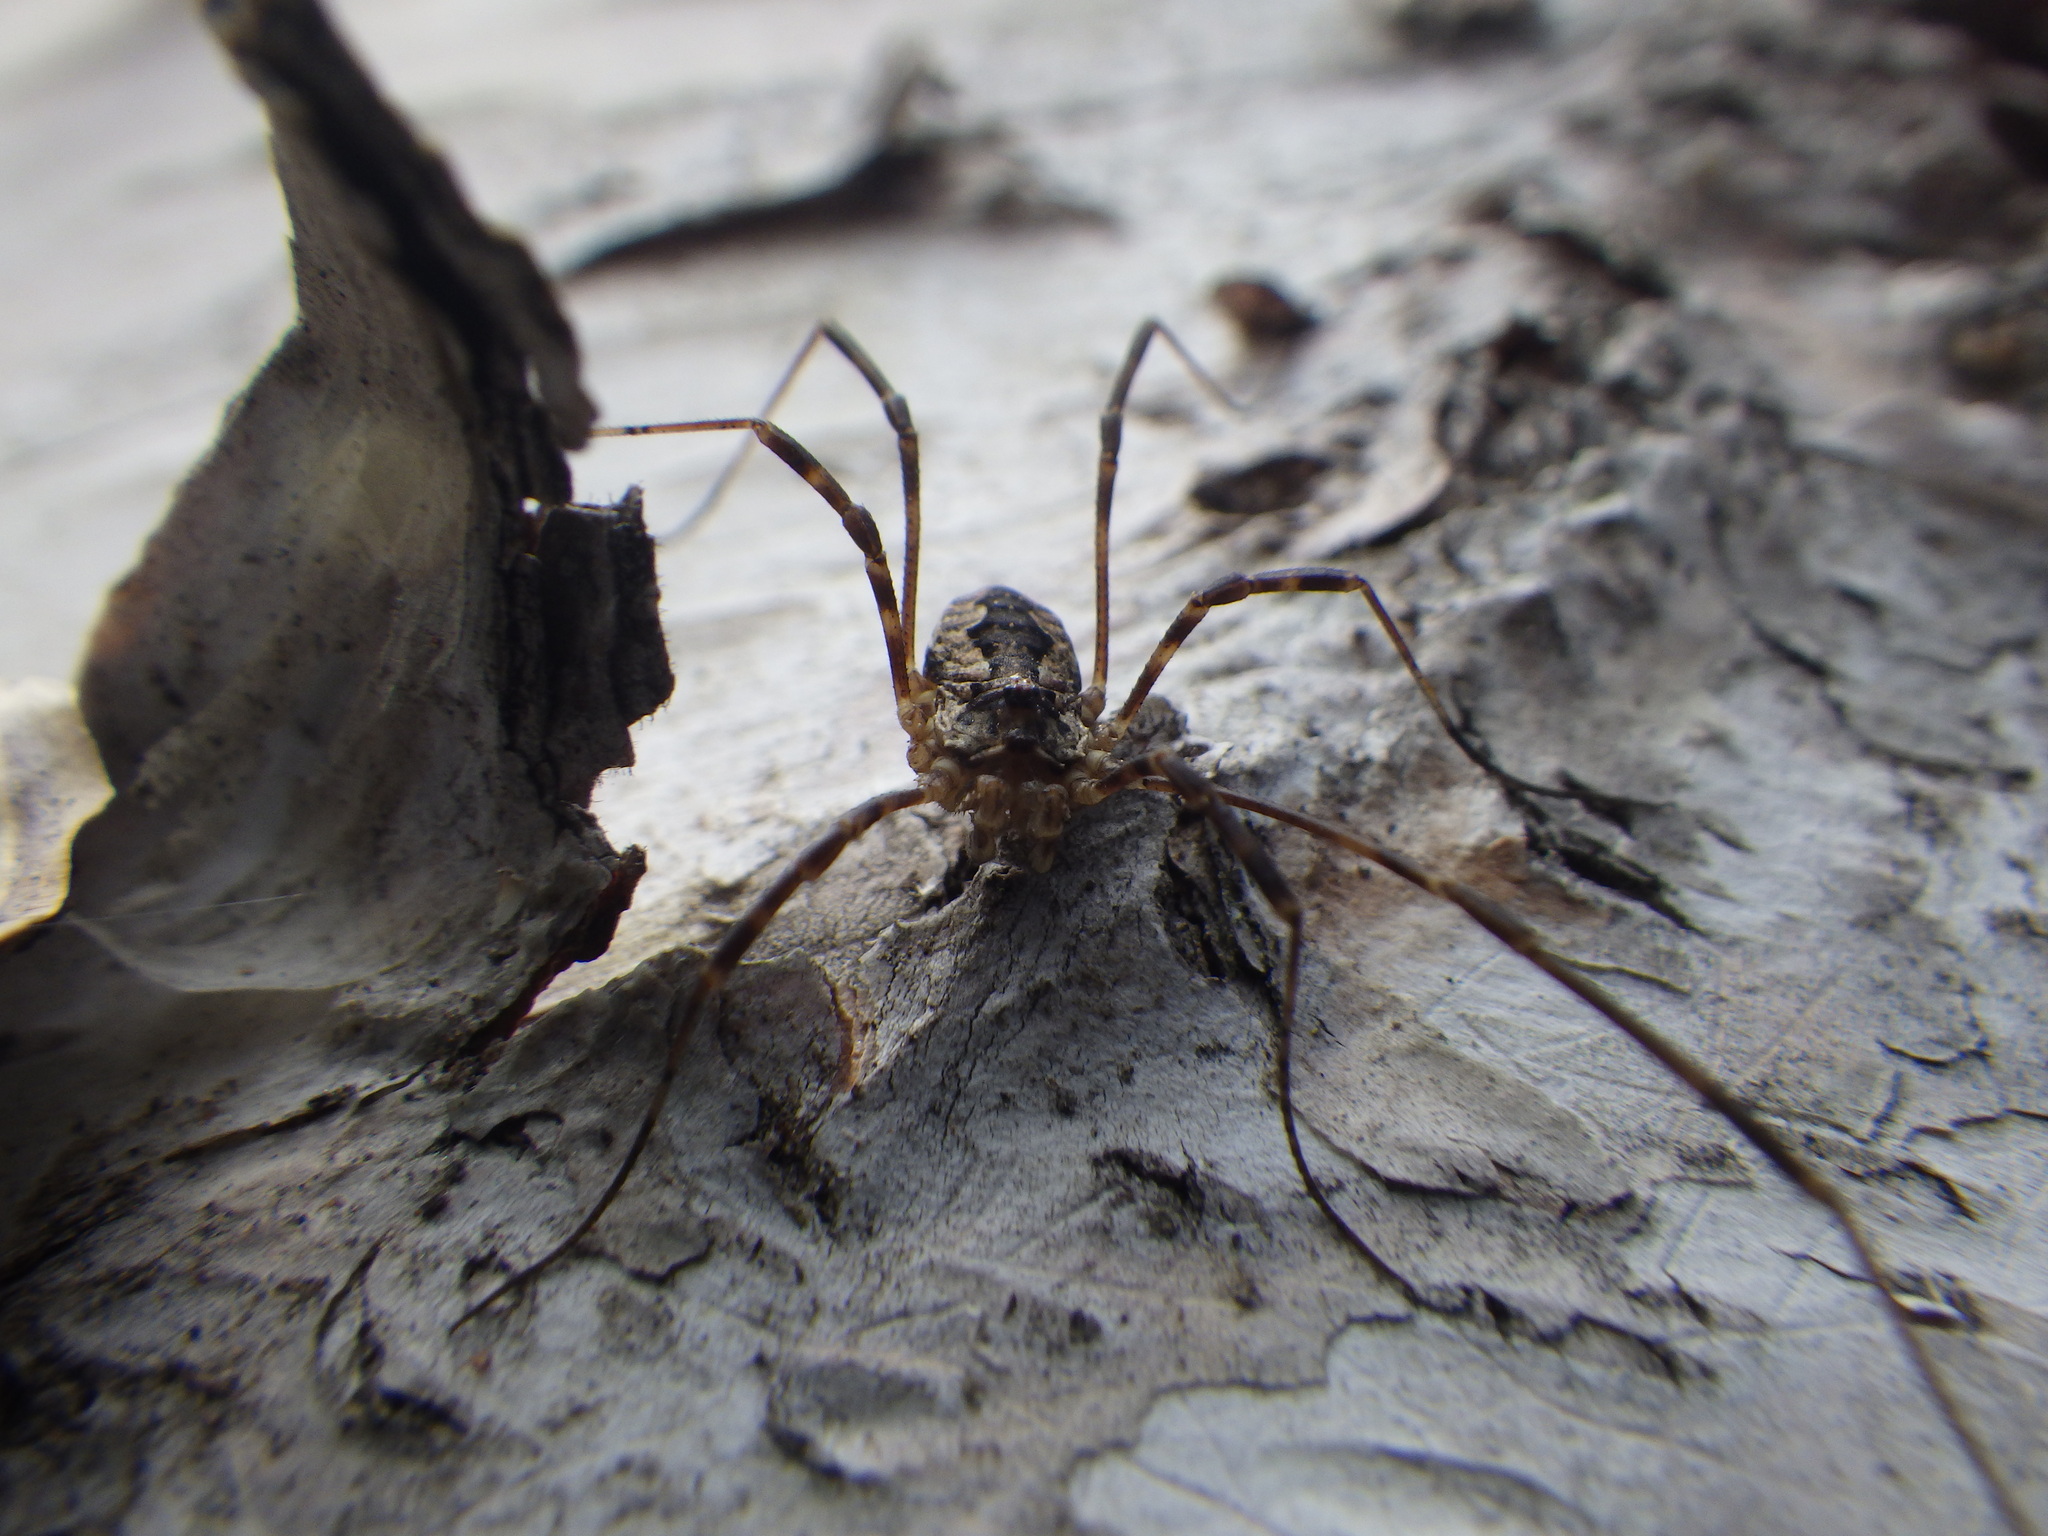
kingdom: Animalia
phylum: Arthropoda
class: Arachnida
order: Opiliones
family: Phalangiidae
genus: Odiellus
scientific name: Odiellus pictus
